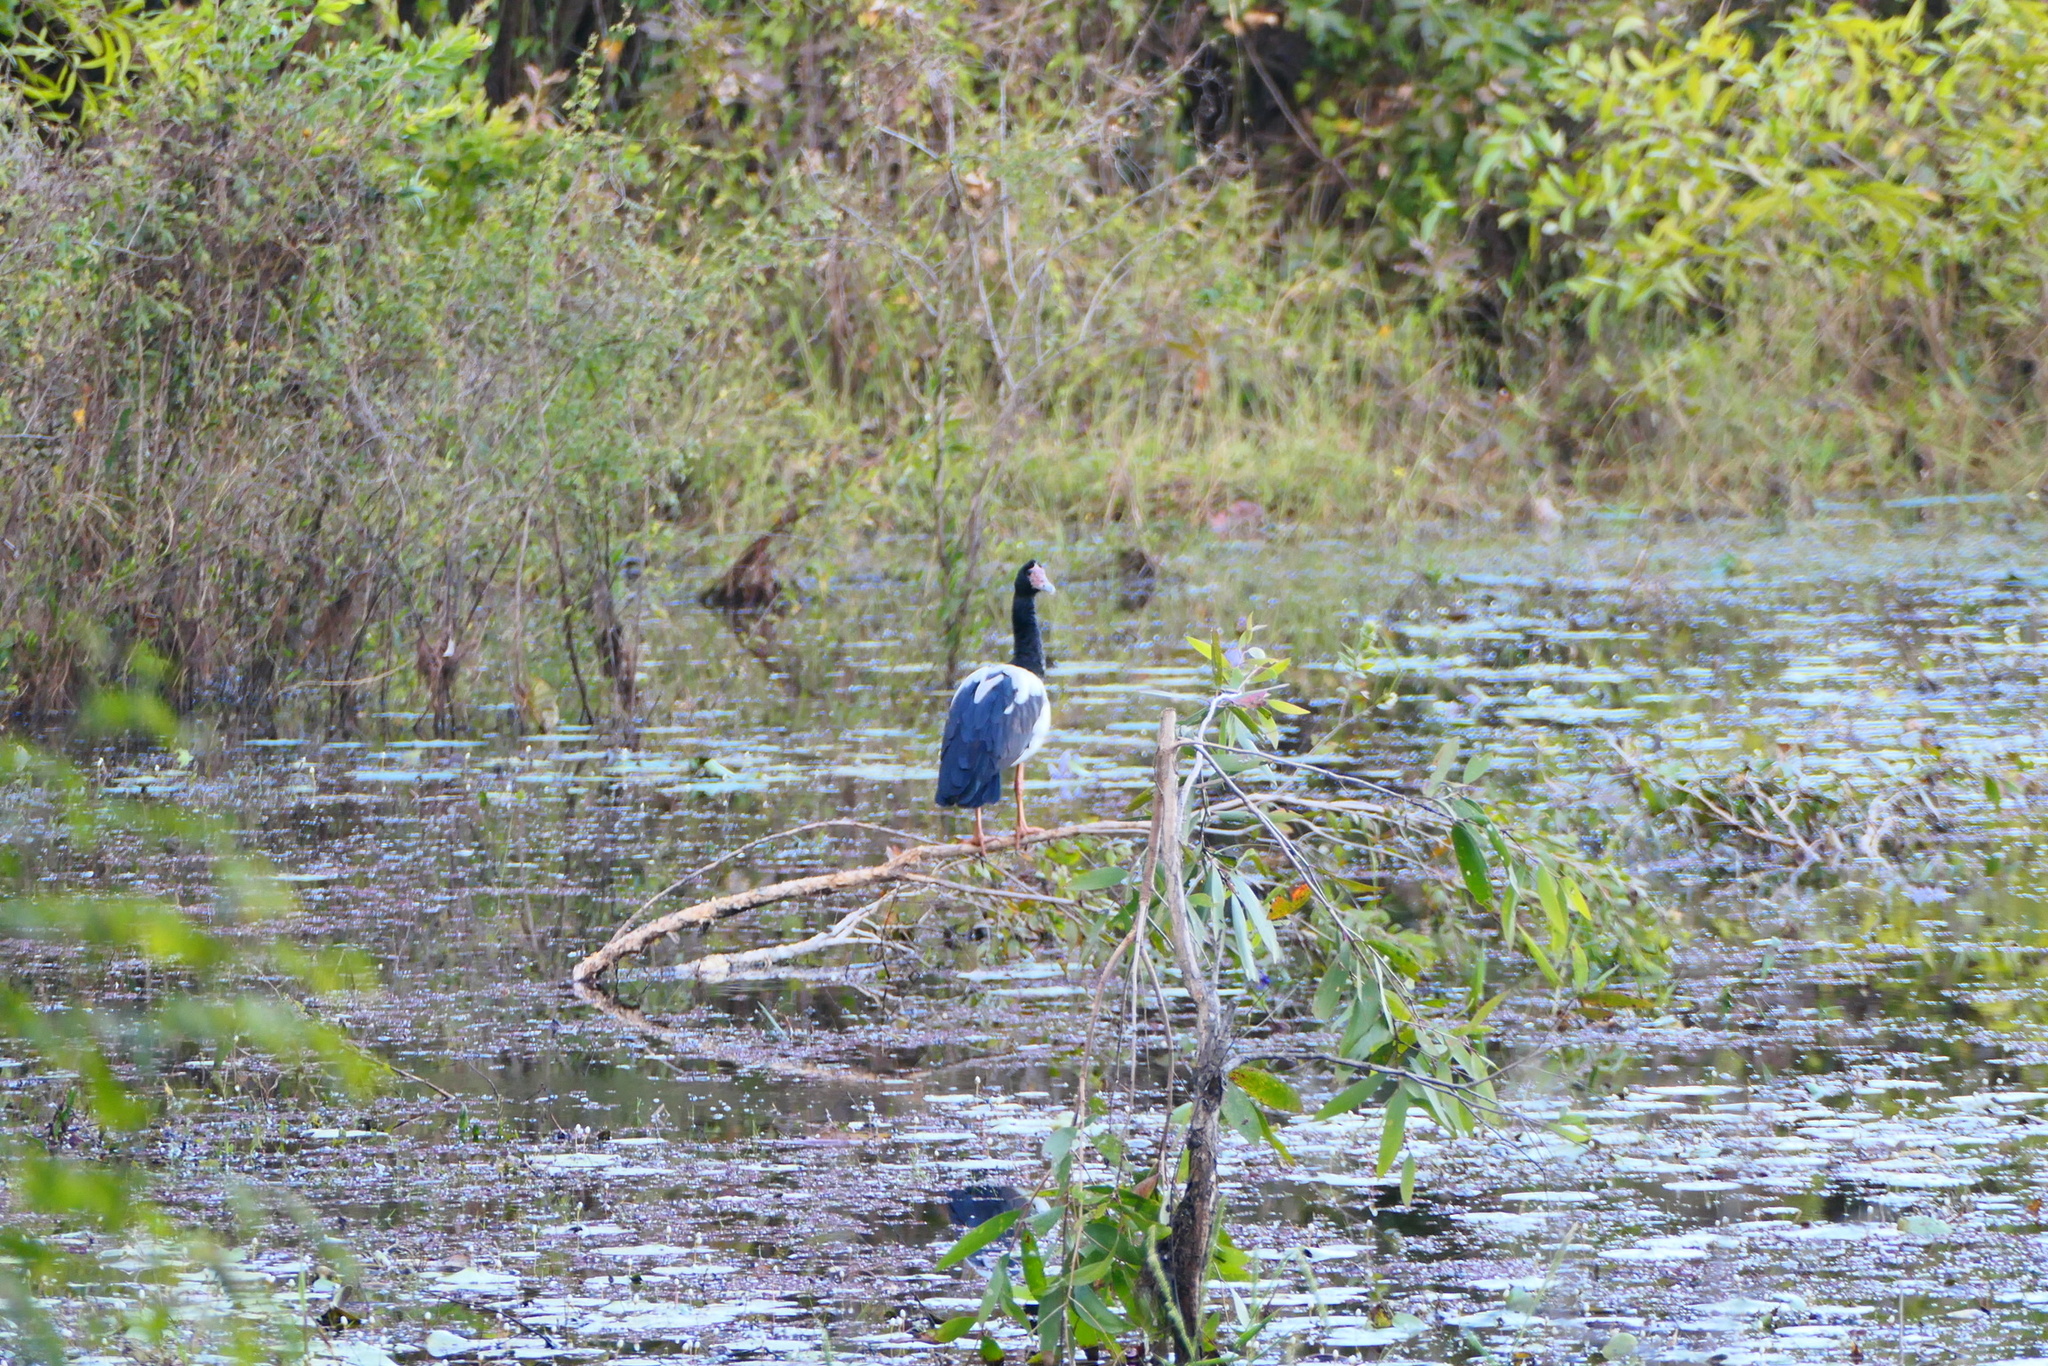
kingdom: Animalia
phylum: Chordata
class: Aves
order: Anseriformes
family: Anseranatidae
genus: Anseranas
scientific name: Anseranas semipalmata
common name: Magpie goose
